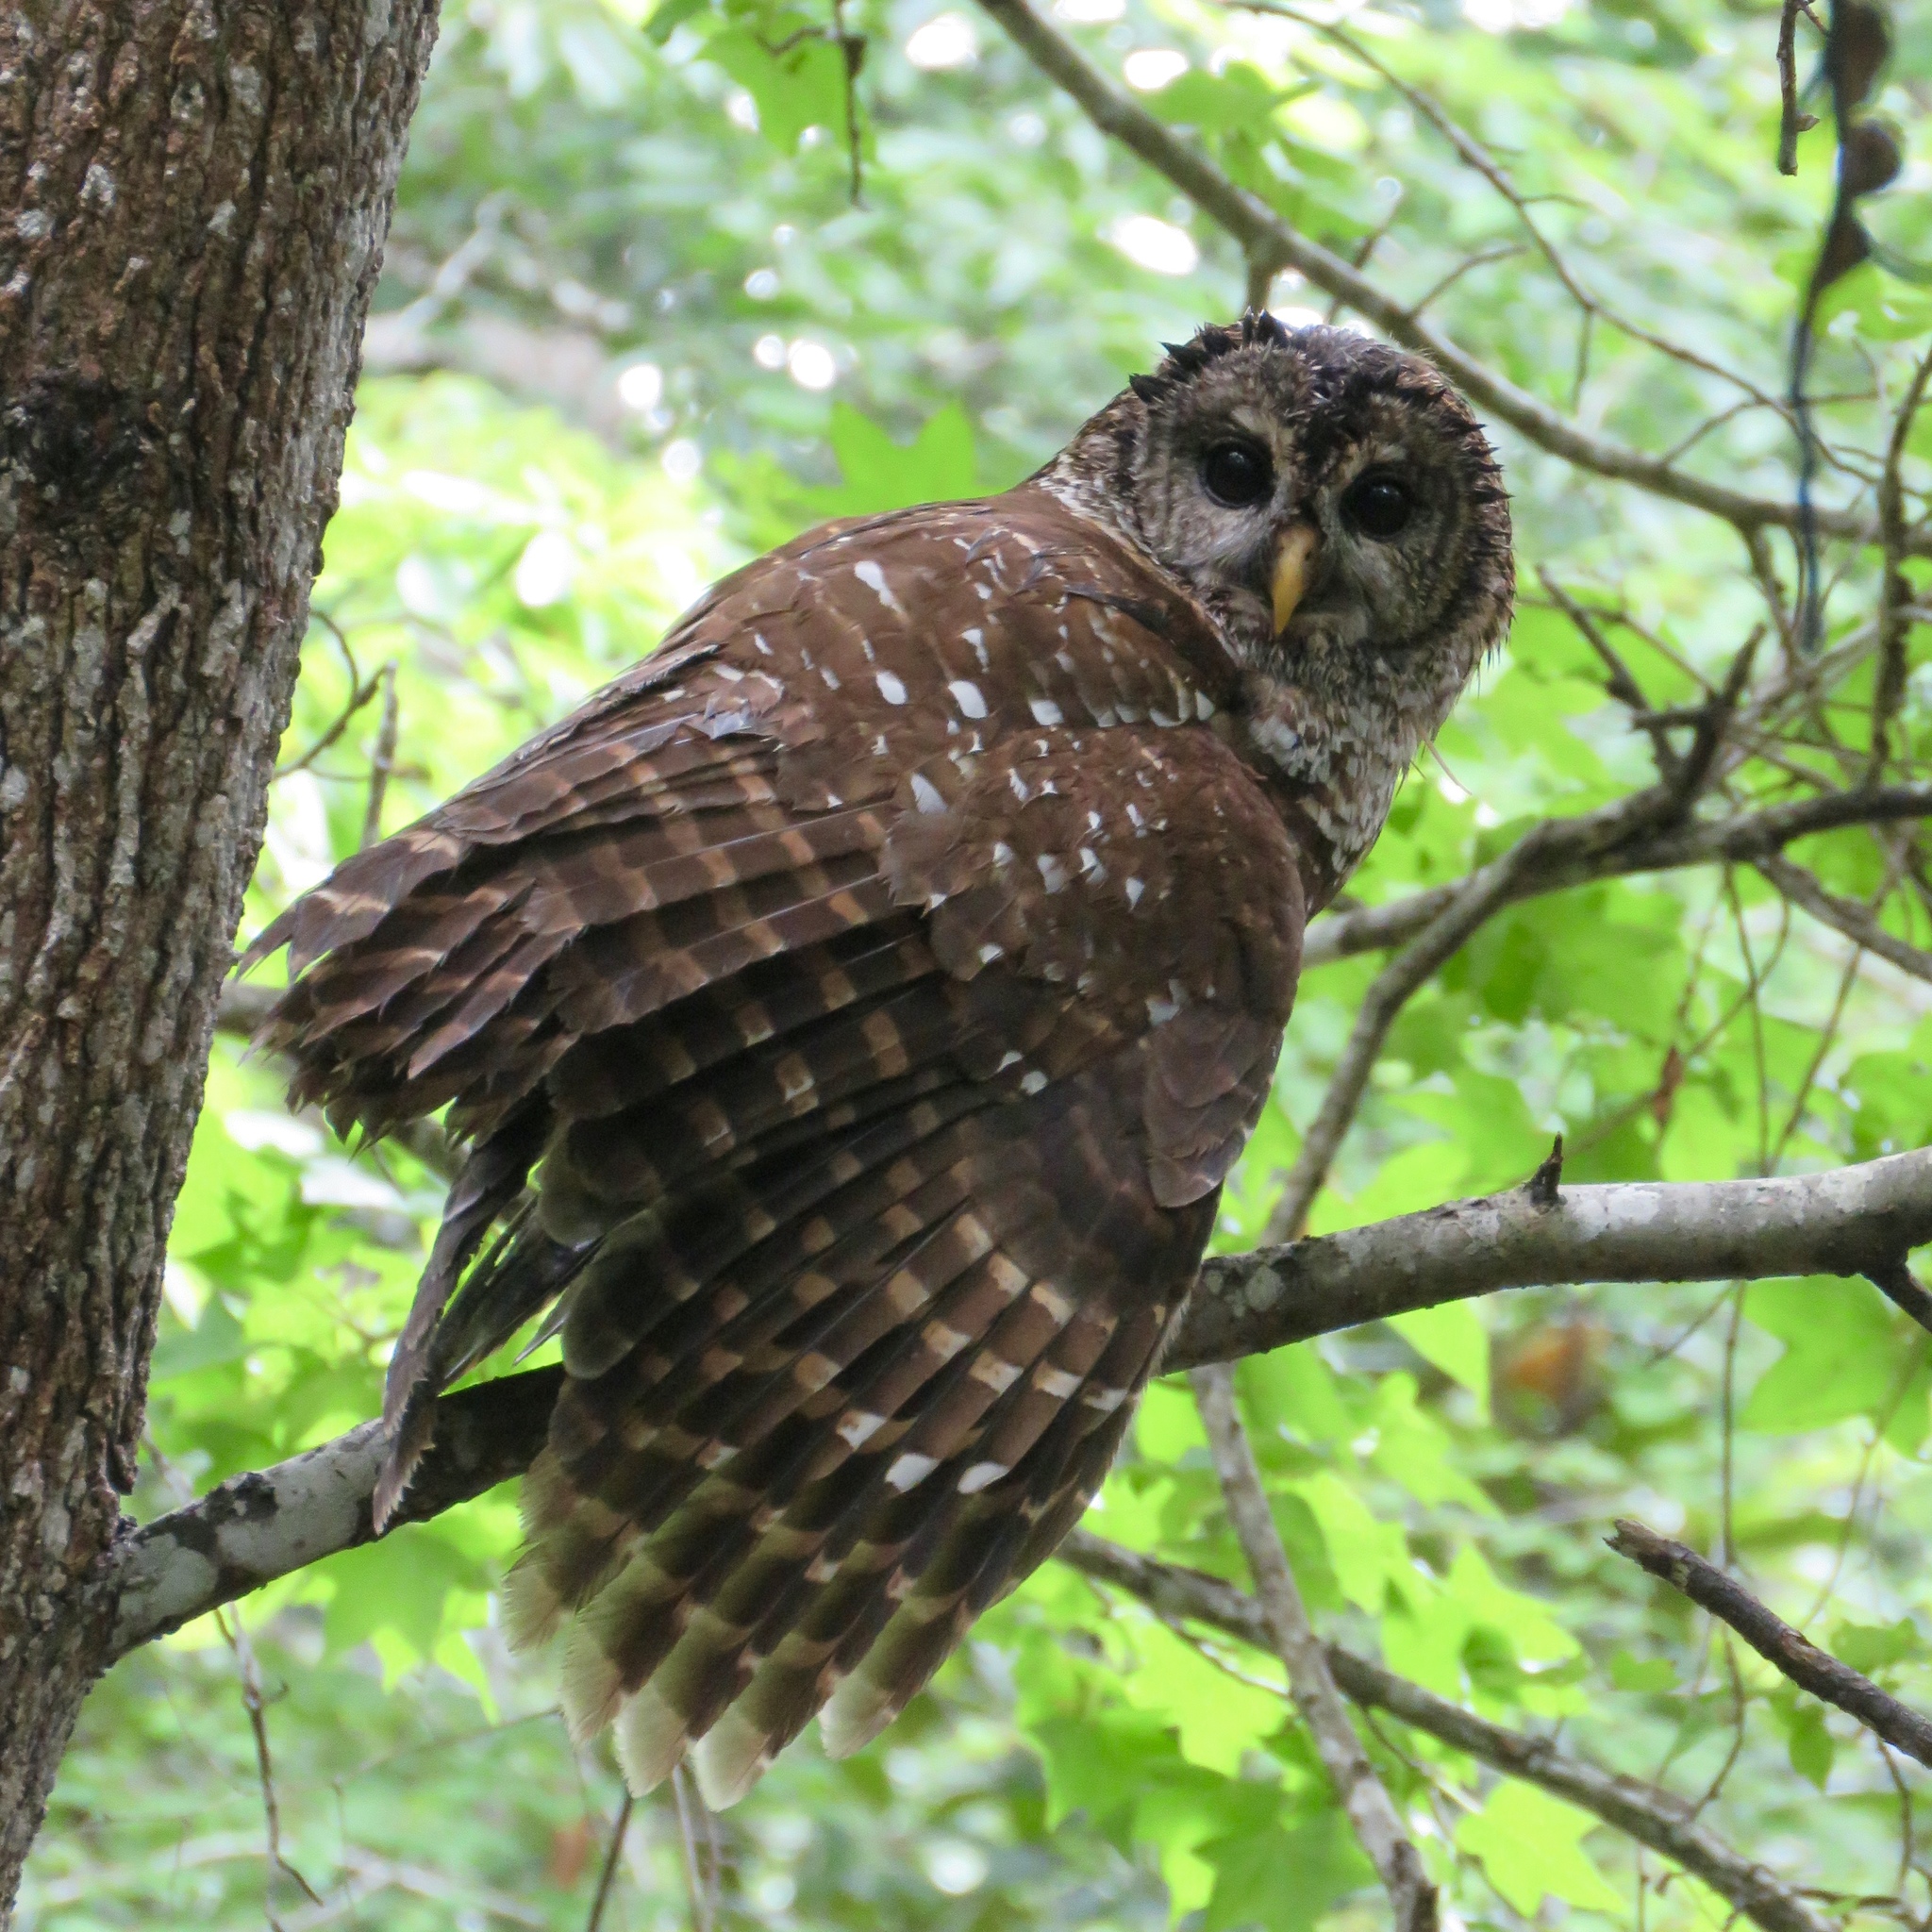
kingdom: Animalia
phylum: Chordata
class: Aves
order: Strigiformes
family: Strigidae
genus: Strix
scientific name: Strix varia
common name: Barred owl
